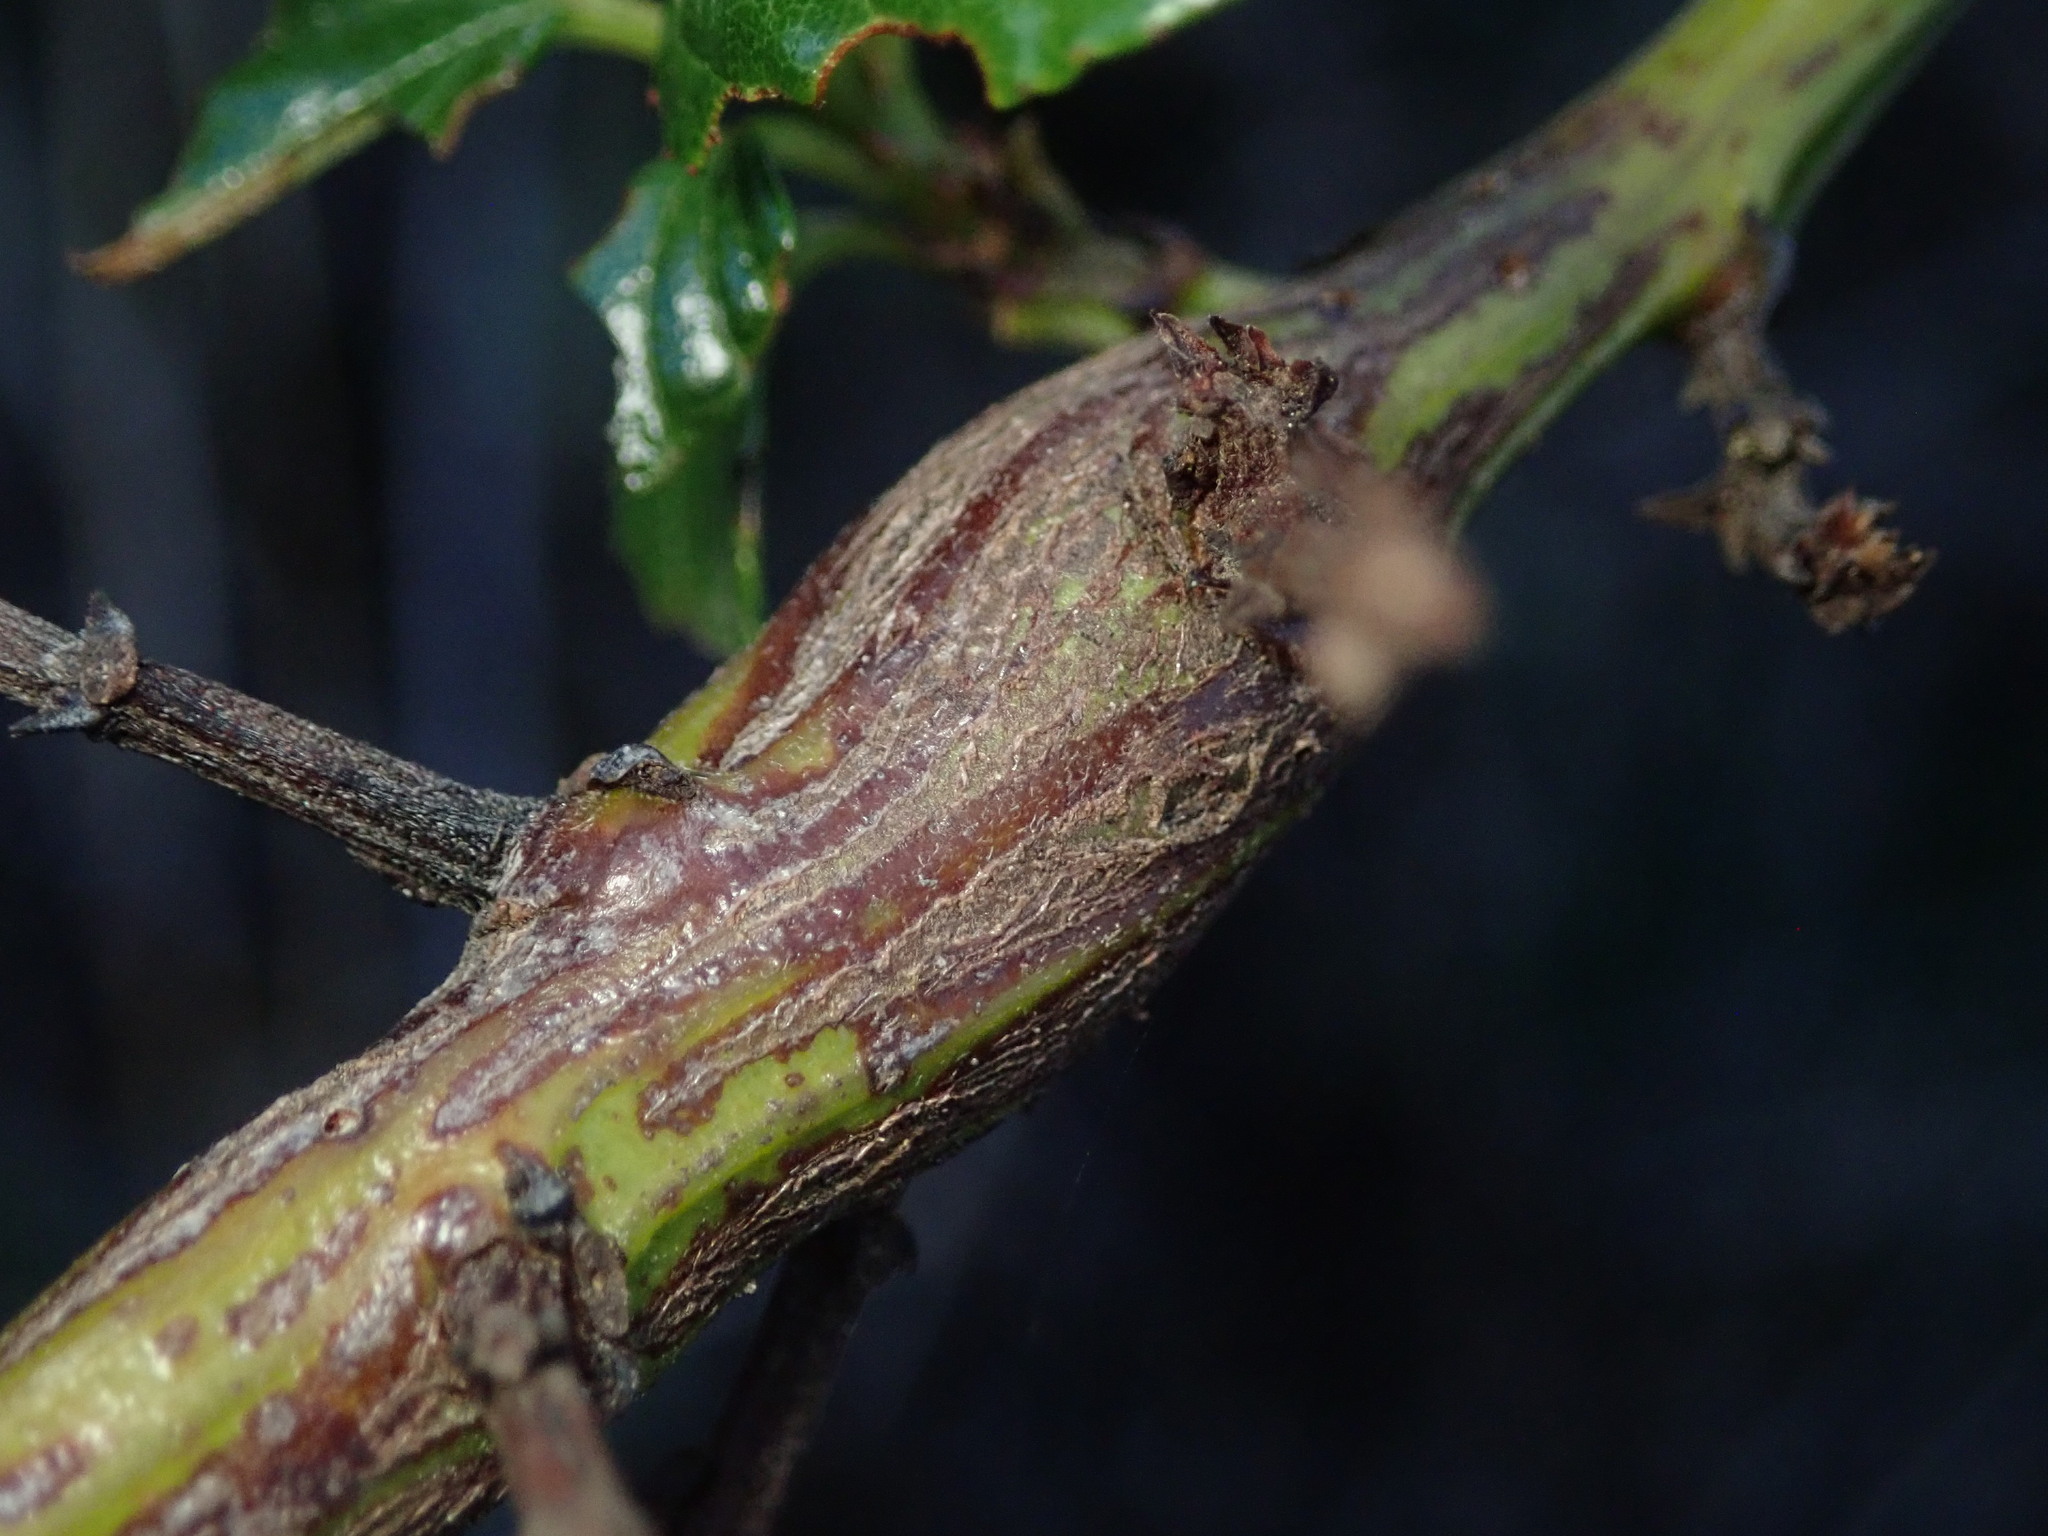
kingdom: Animalia
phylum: Arthropoda
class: Insecta
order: Lepidoptera
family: Gelechiidae
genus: Gnorimoschema
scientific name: Gnorimoschema baccharisella
